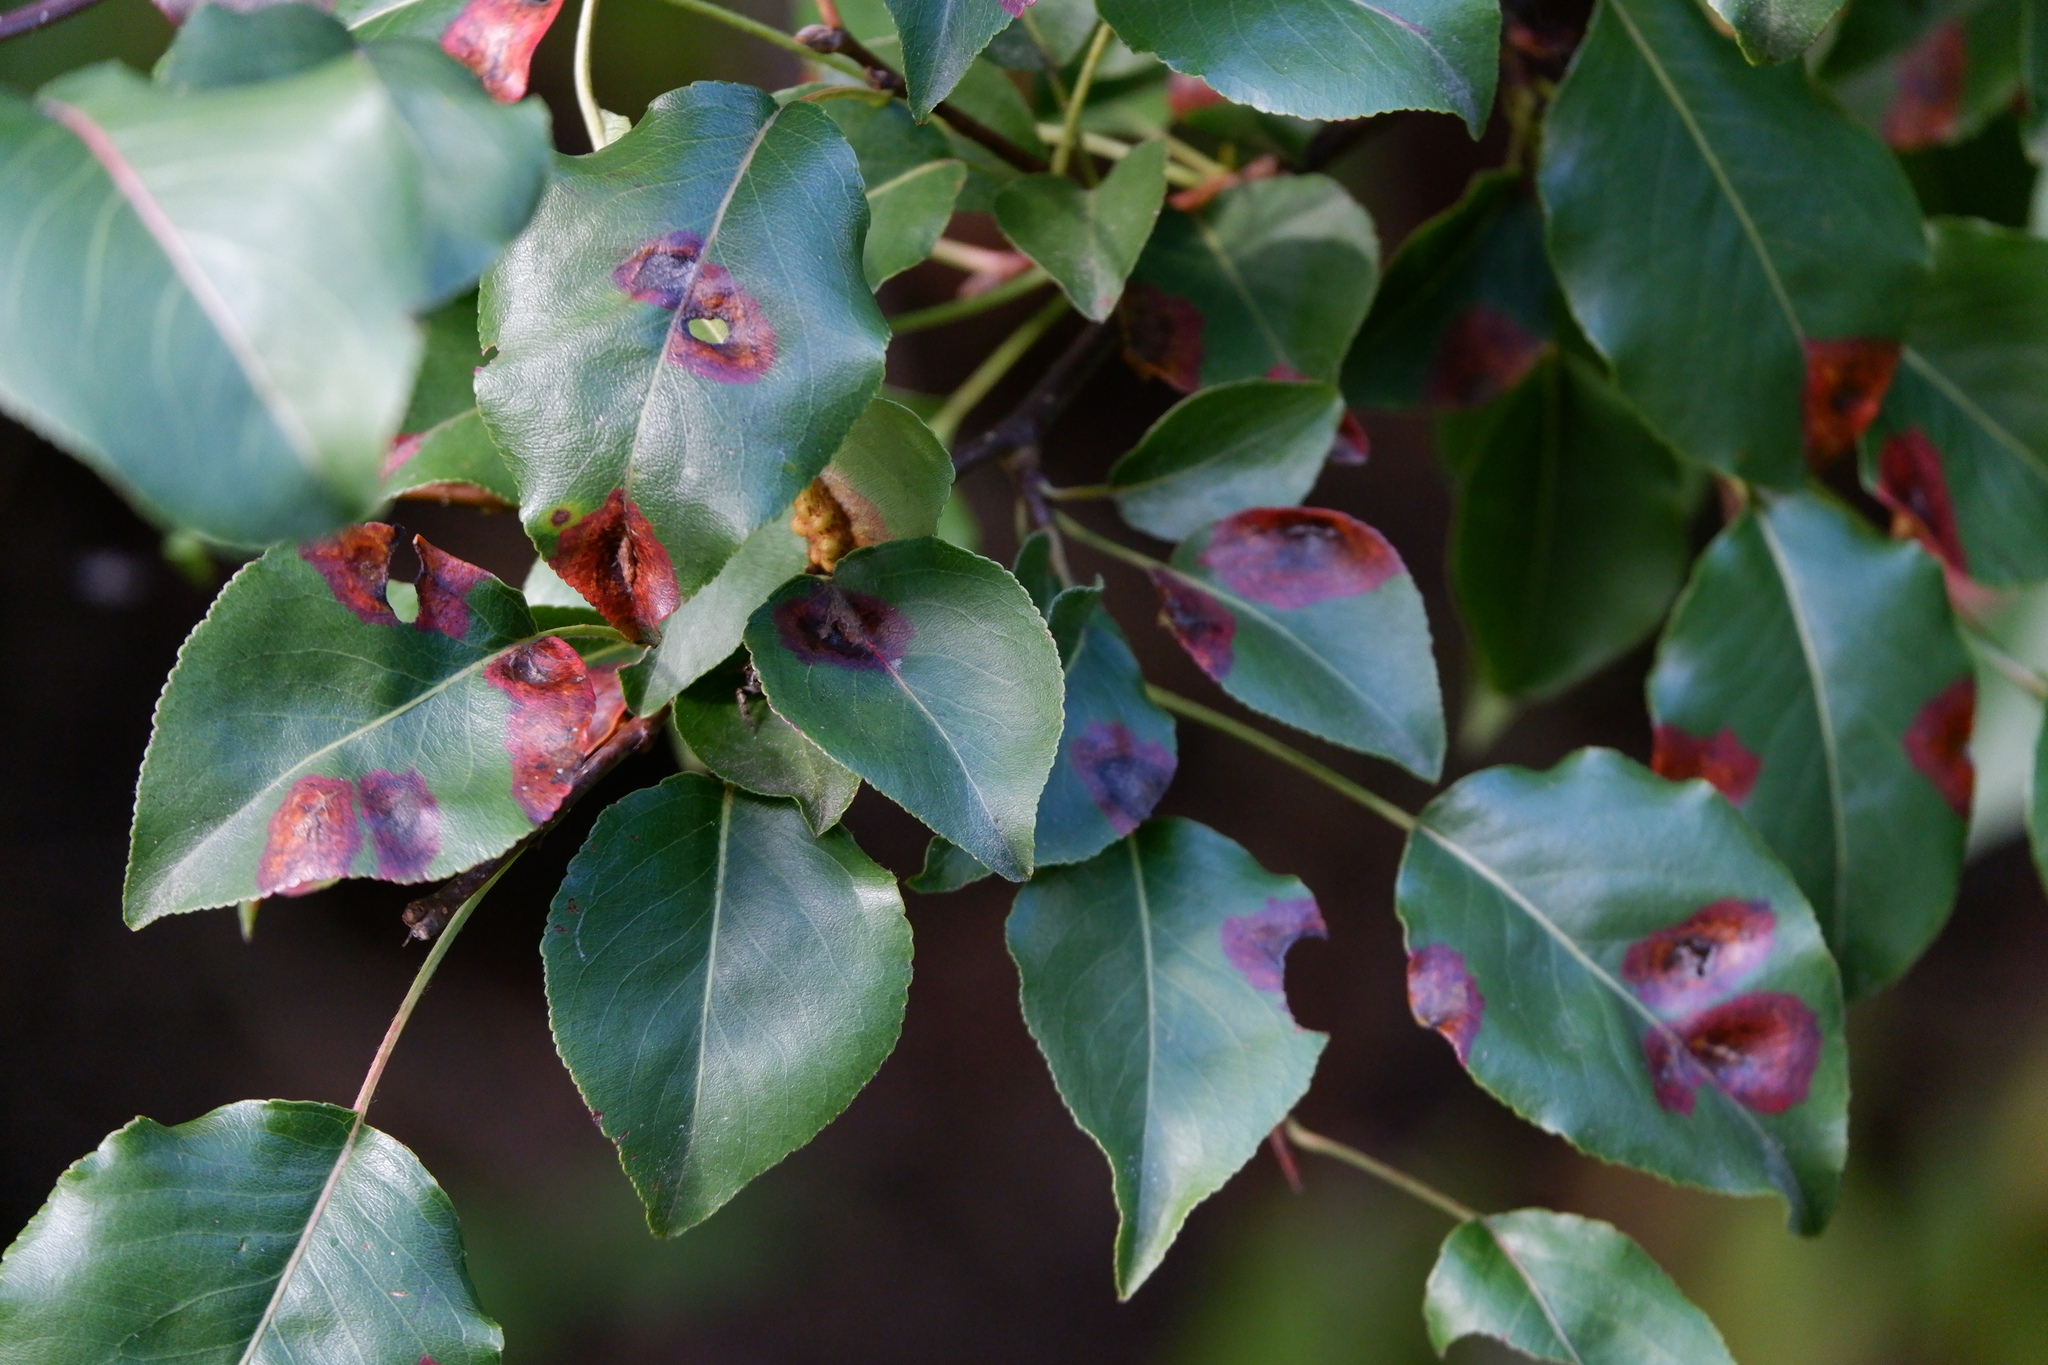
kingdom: Fungi
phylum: Basidiomycota
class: Pucciniomycetes
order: Pucciniales
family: Gymnosporangiaceae
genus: Gymnosporangium
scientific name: Gymnosporangium sabinae
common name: Pear trellis rust fungus
